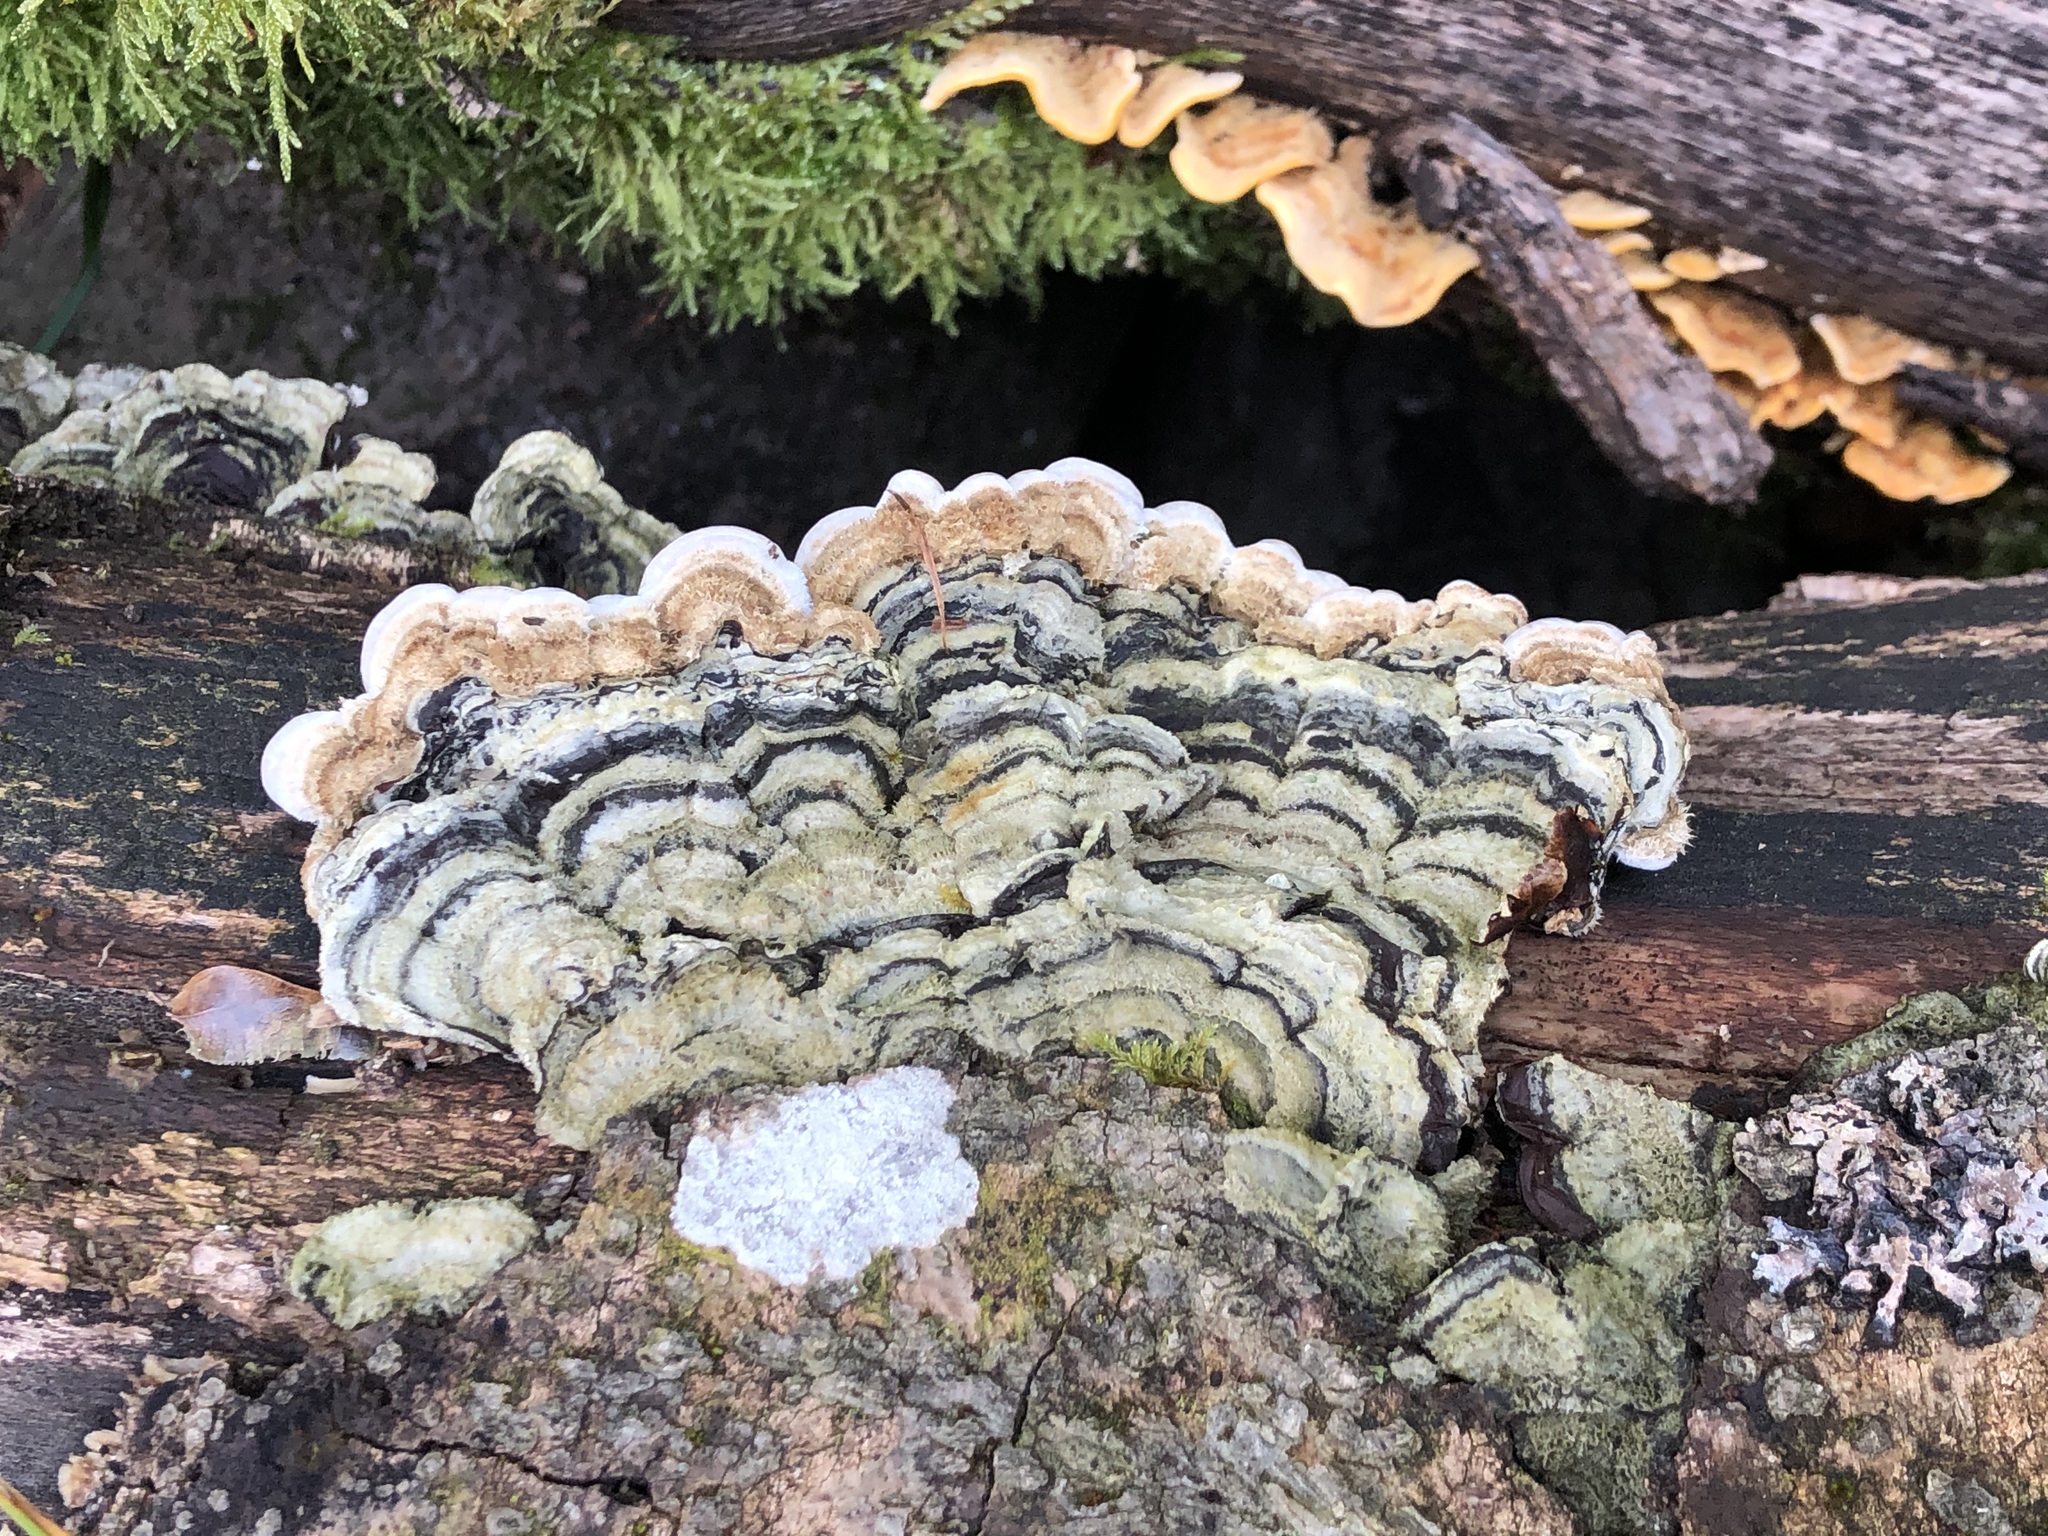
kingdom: Fungi
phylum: Basidiomycota
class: Agaricomycetes
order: Polyporales
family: Polyporaceae
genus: Trametes
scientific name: Trametes versicolor
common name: Turkeytail
